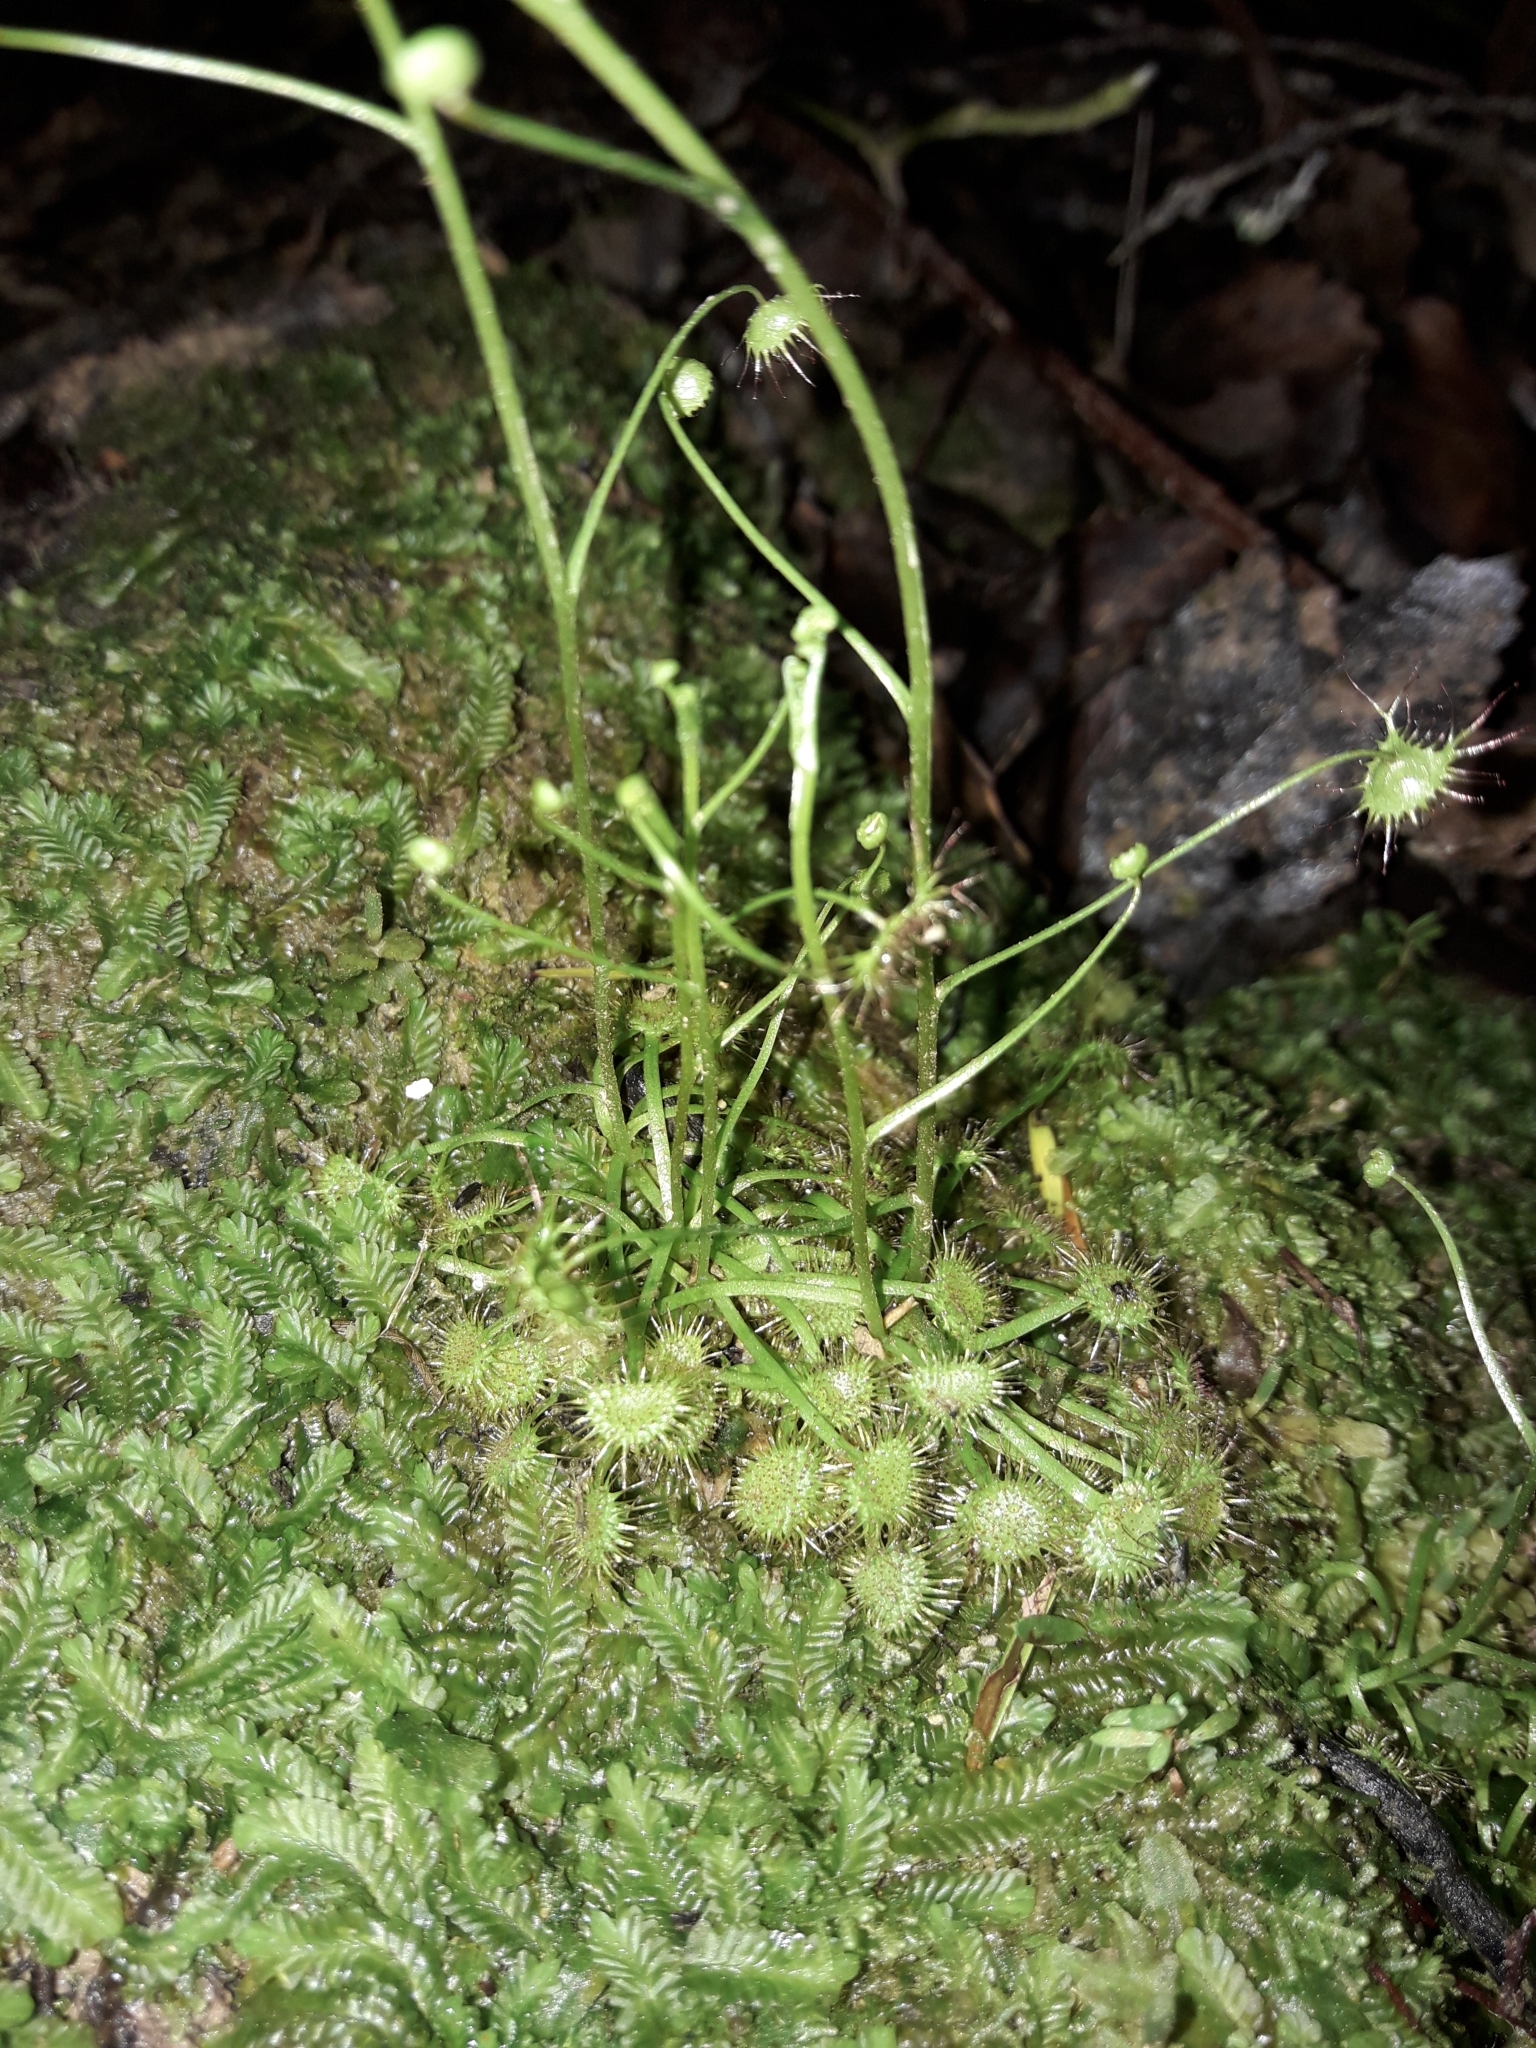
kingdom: Plantae
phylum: Tracheophyta
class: Magnoliopsida
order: Caryophyllales
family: Droseraceae
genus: Drosera
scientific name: Drosera peltata
